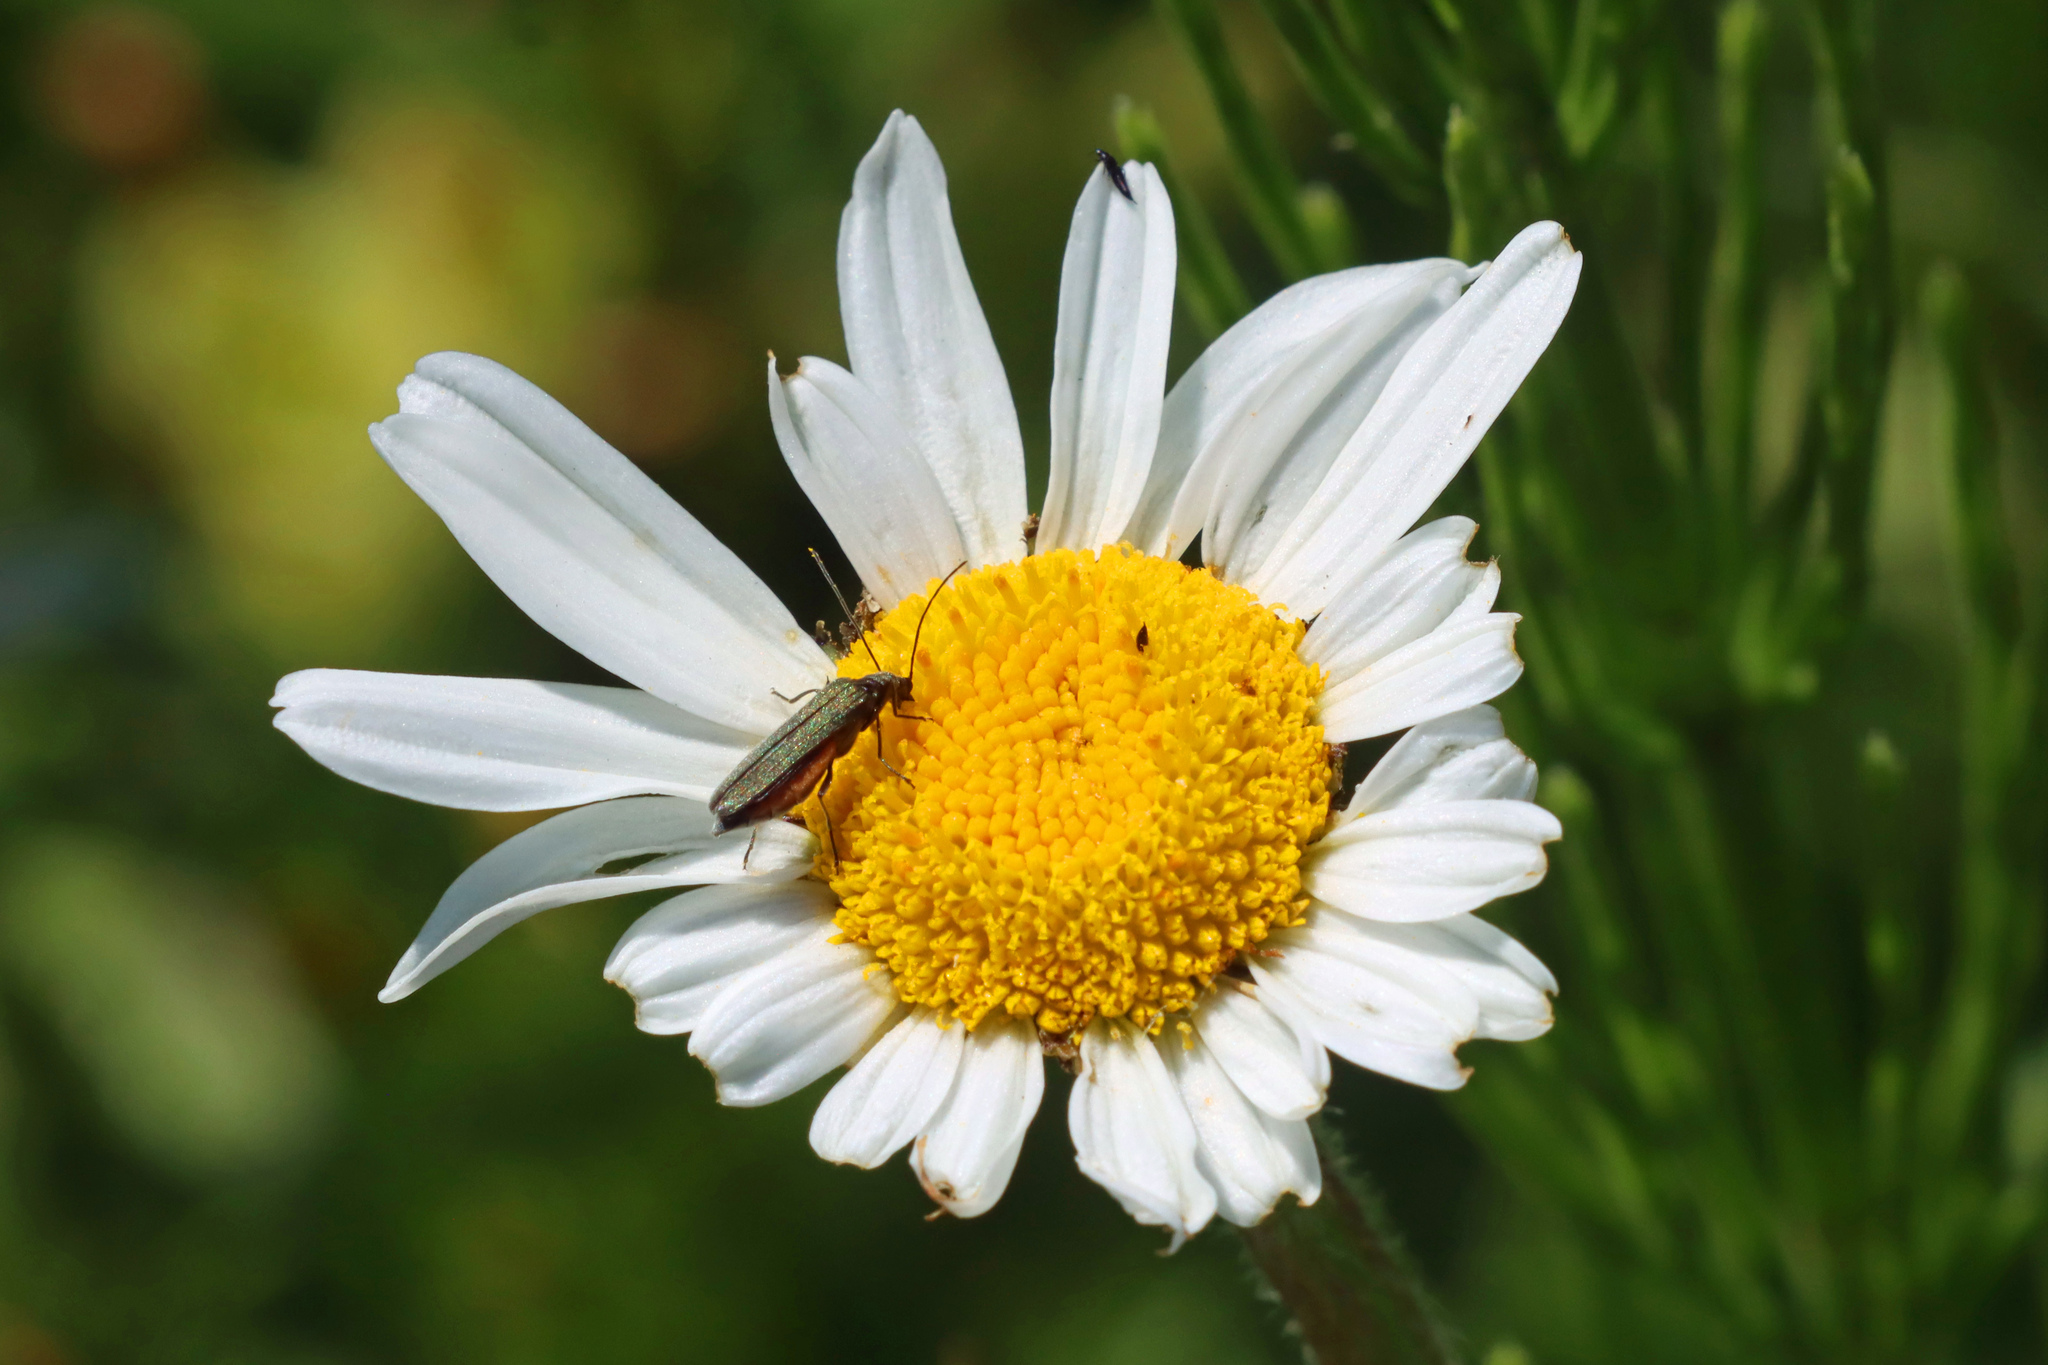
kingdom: Animalia
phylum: Arthropoda
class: Insecta
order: Coleoptera
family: Oedemeridae
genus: Oedemera
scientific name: Oedemera nobilis
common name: Swollen-thighed beetle
